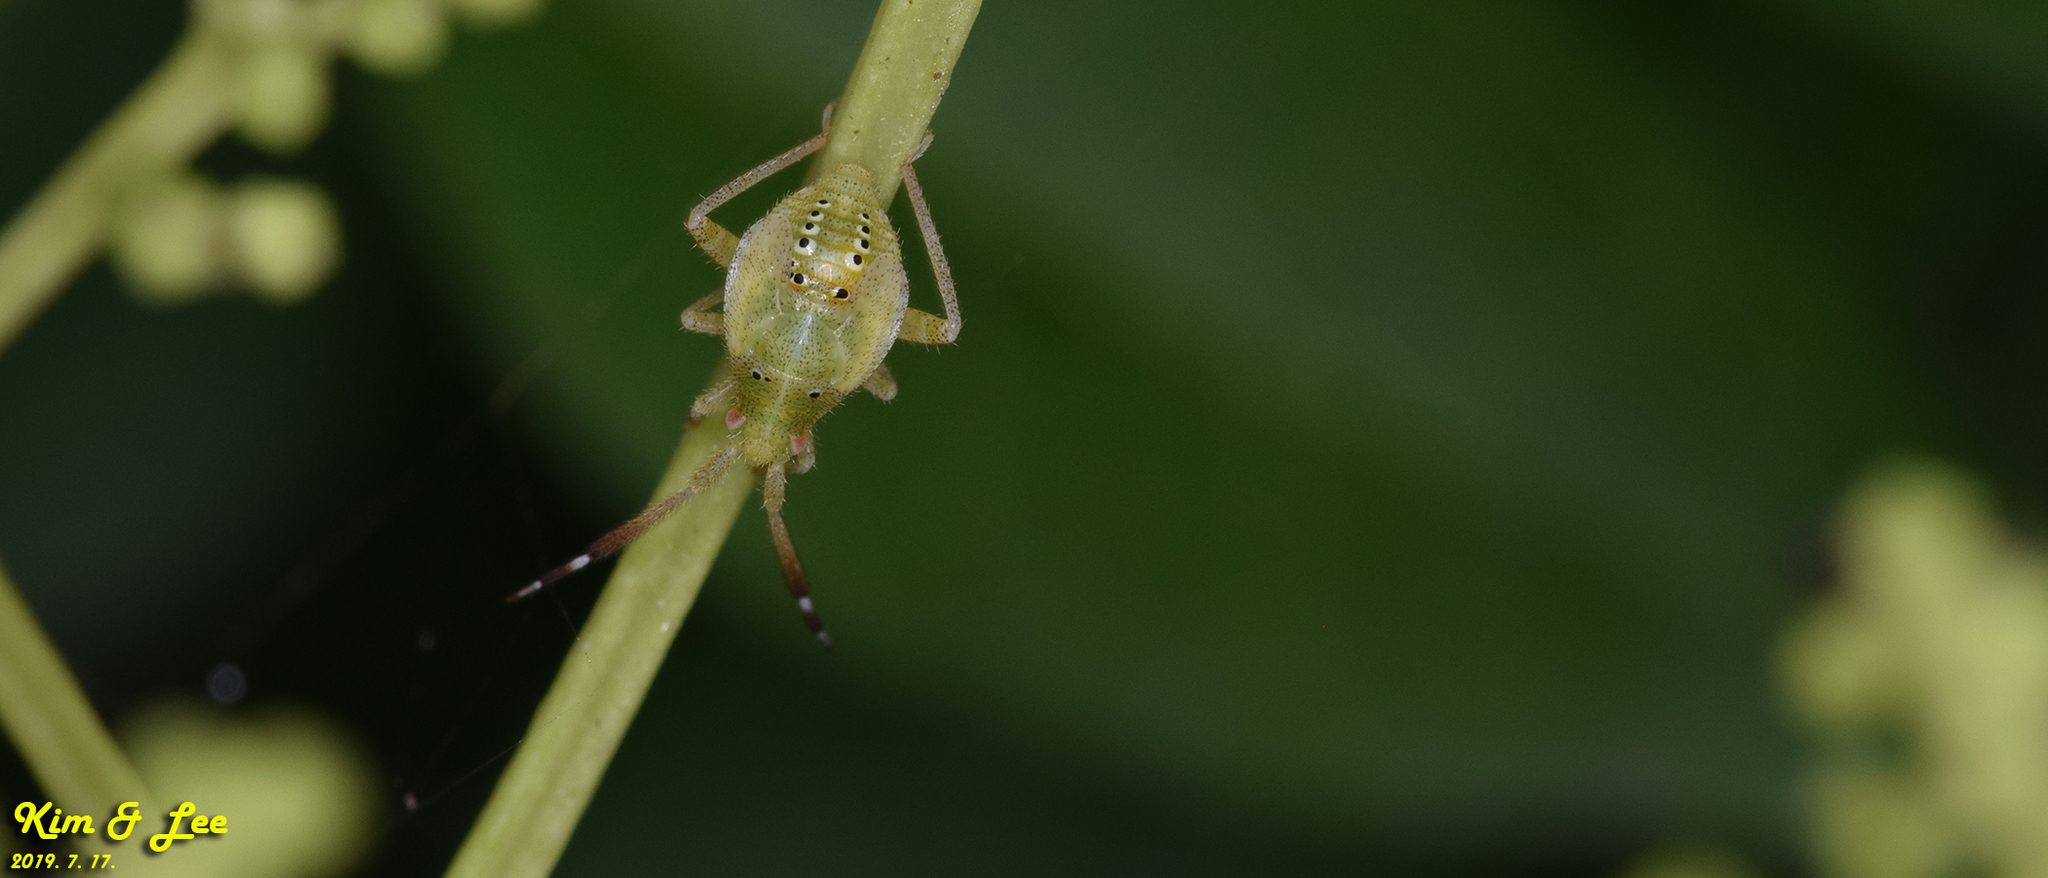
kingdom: Animalia
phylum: Arthropoda
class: Insecta
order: Hemiptera
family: Miridae
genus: Eurystylus
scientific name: Eurystylus coelestialium
